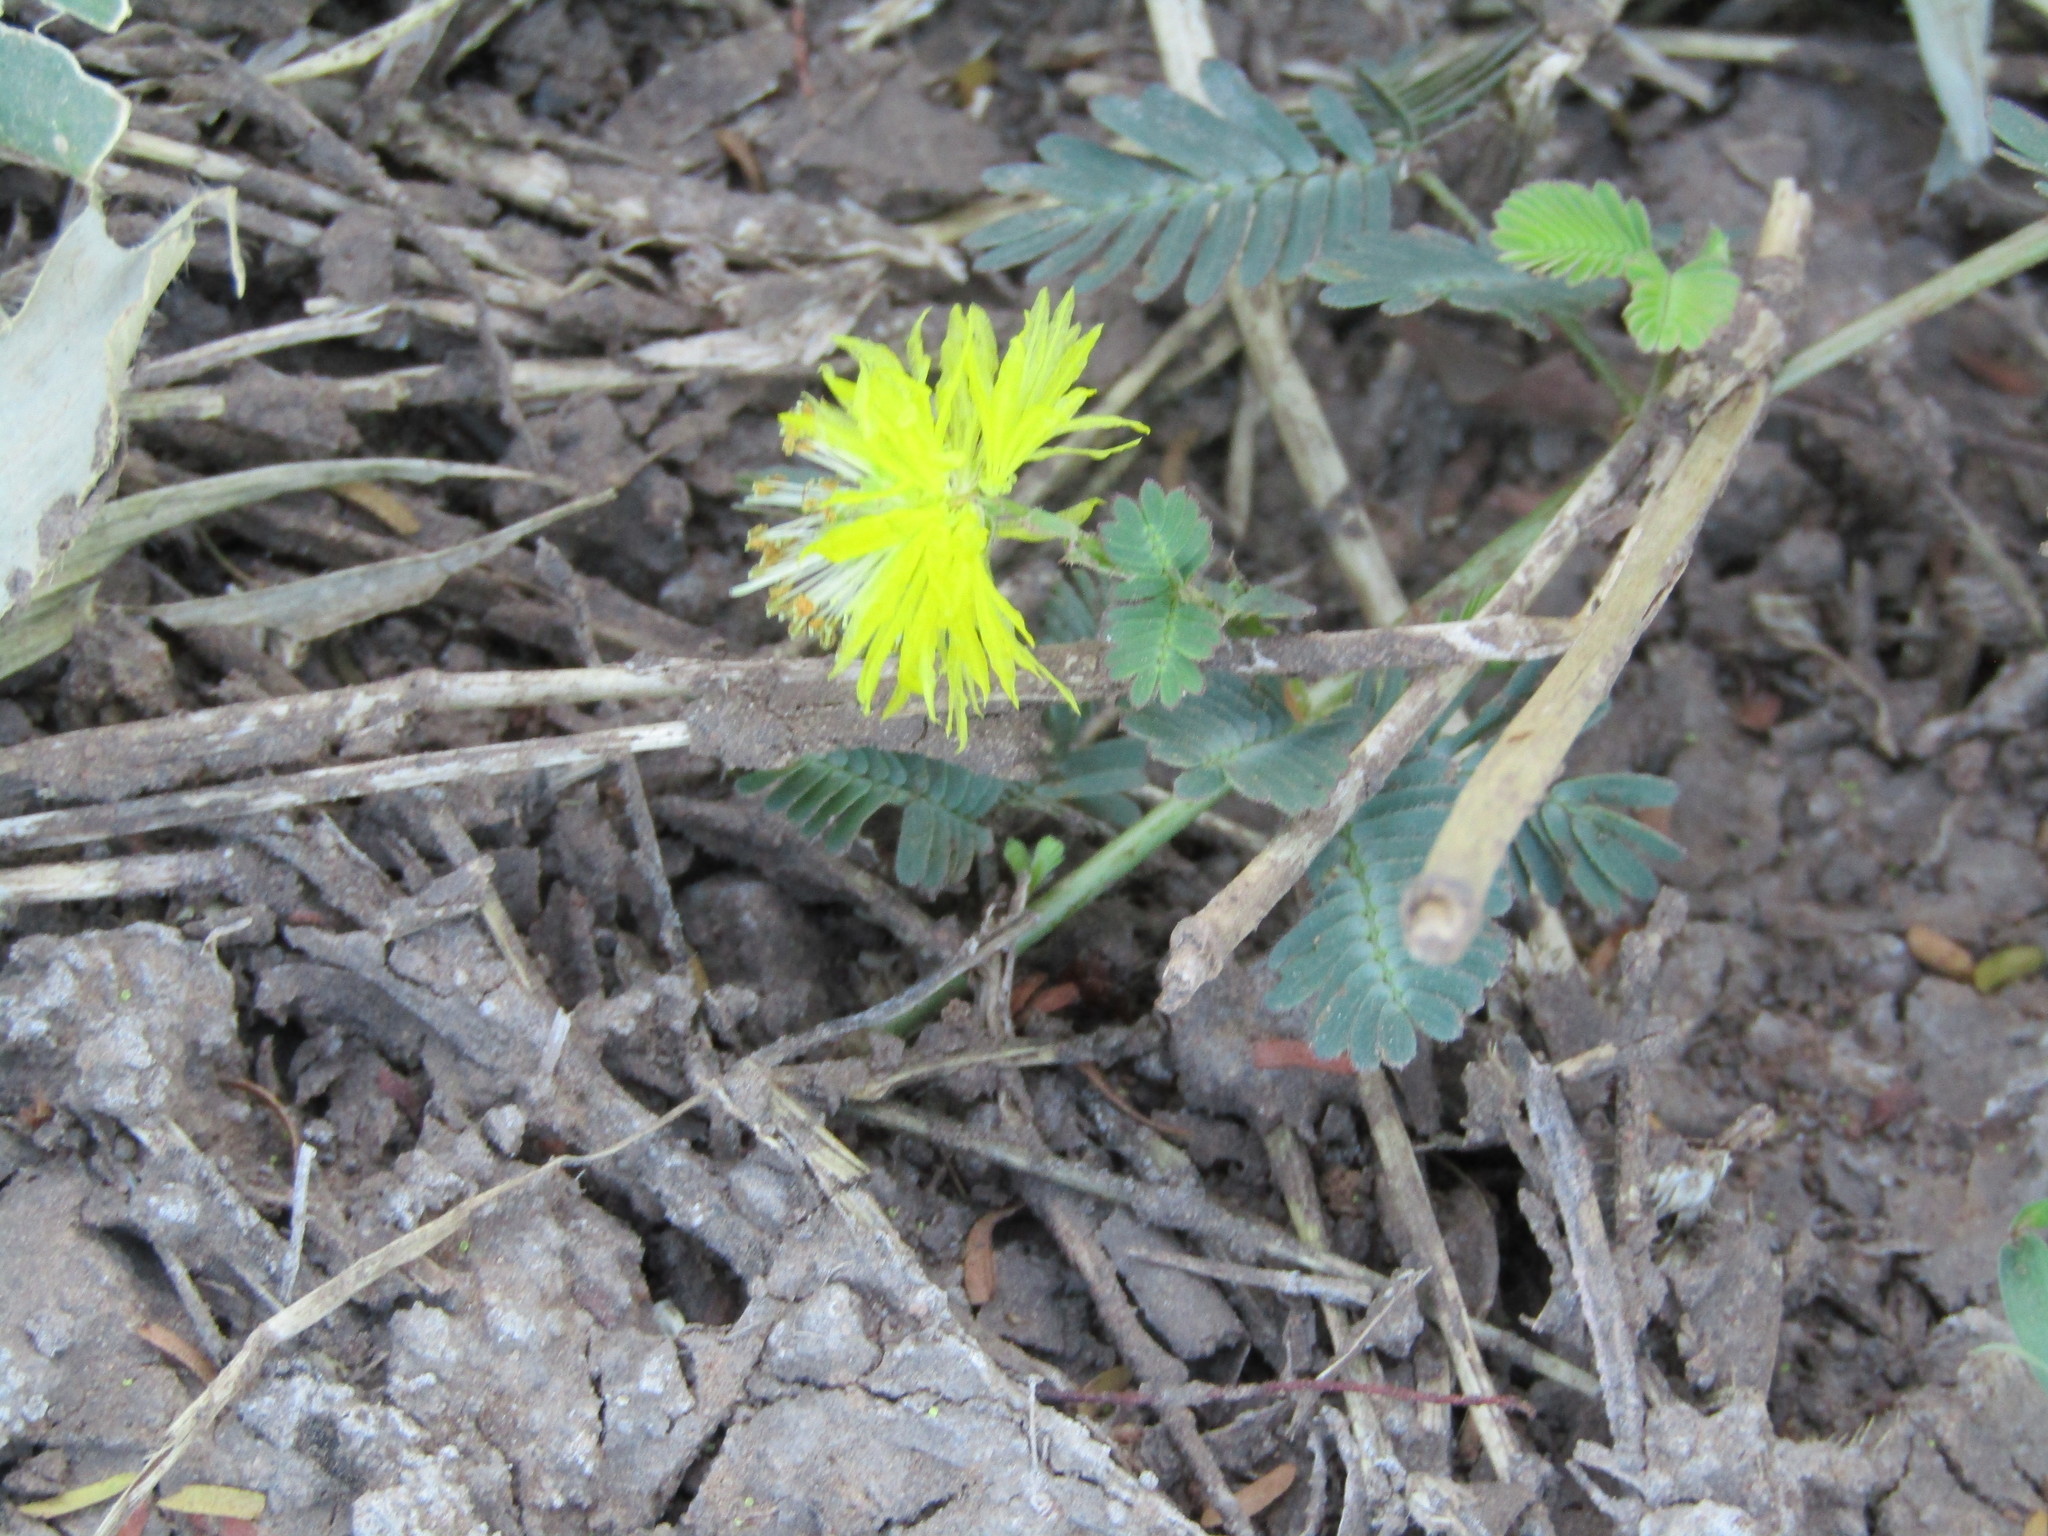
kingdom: Plantae
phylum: Tracheophyta
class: Magnoliopsida
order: Fabales
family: Fabaceae
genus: Neptunia
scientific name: Neptunia plena
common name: Dead and awake
